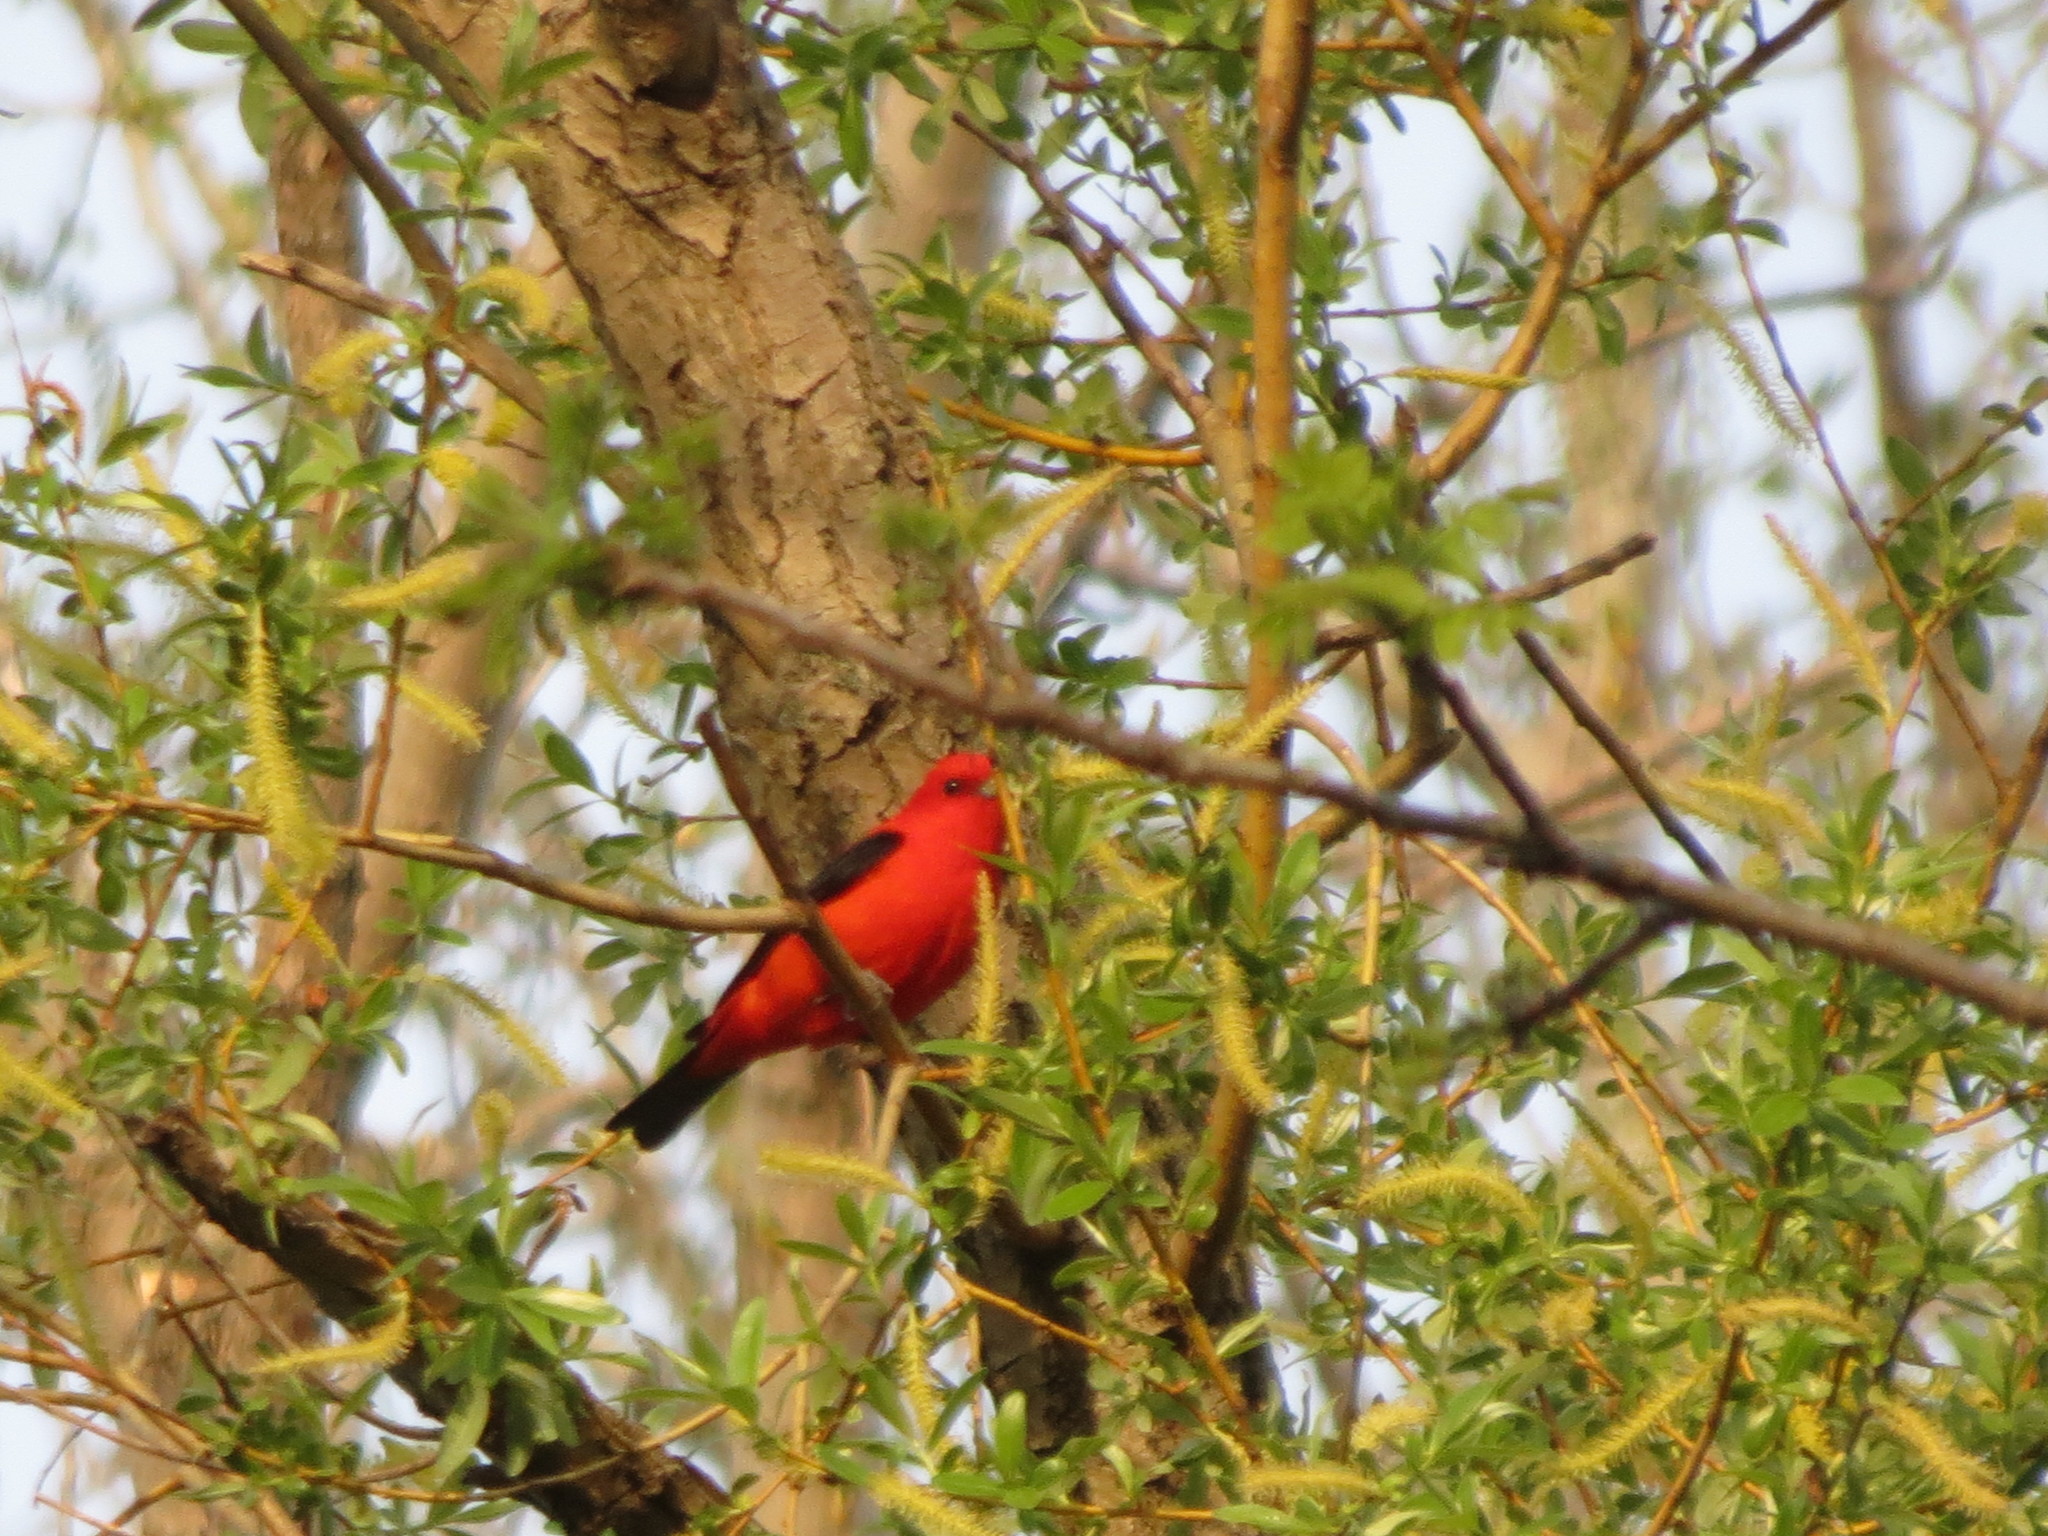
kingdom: Animalia
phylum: Chordata
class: Aves
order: Passeriformes
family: Cardinalidae
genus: Piranga
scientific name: Piranga olivacea
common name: Scarlet tanager
